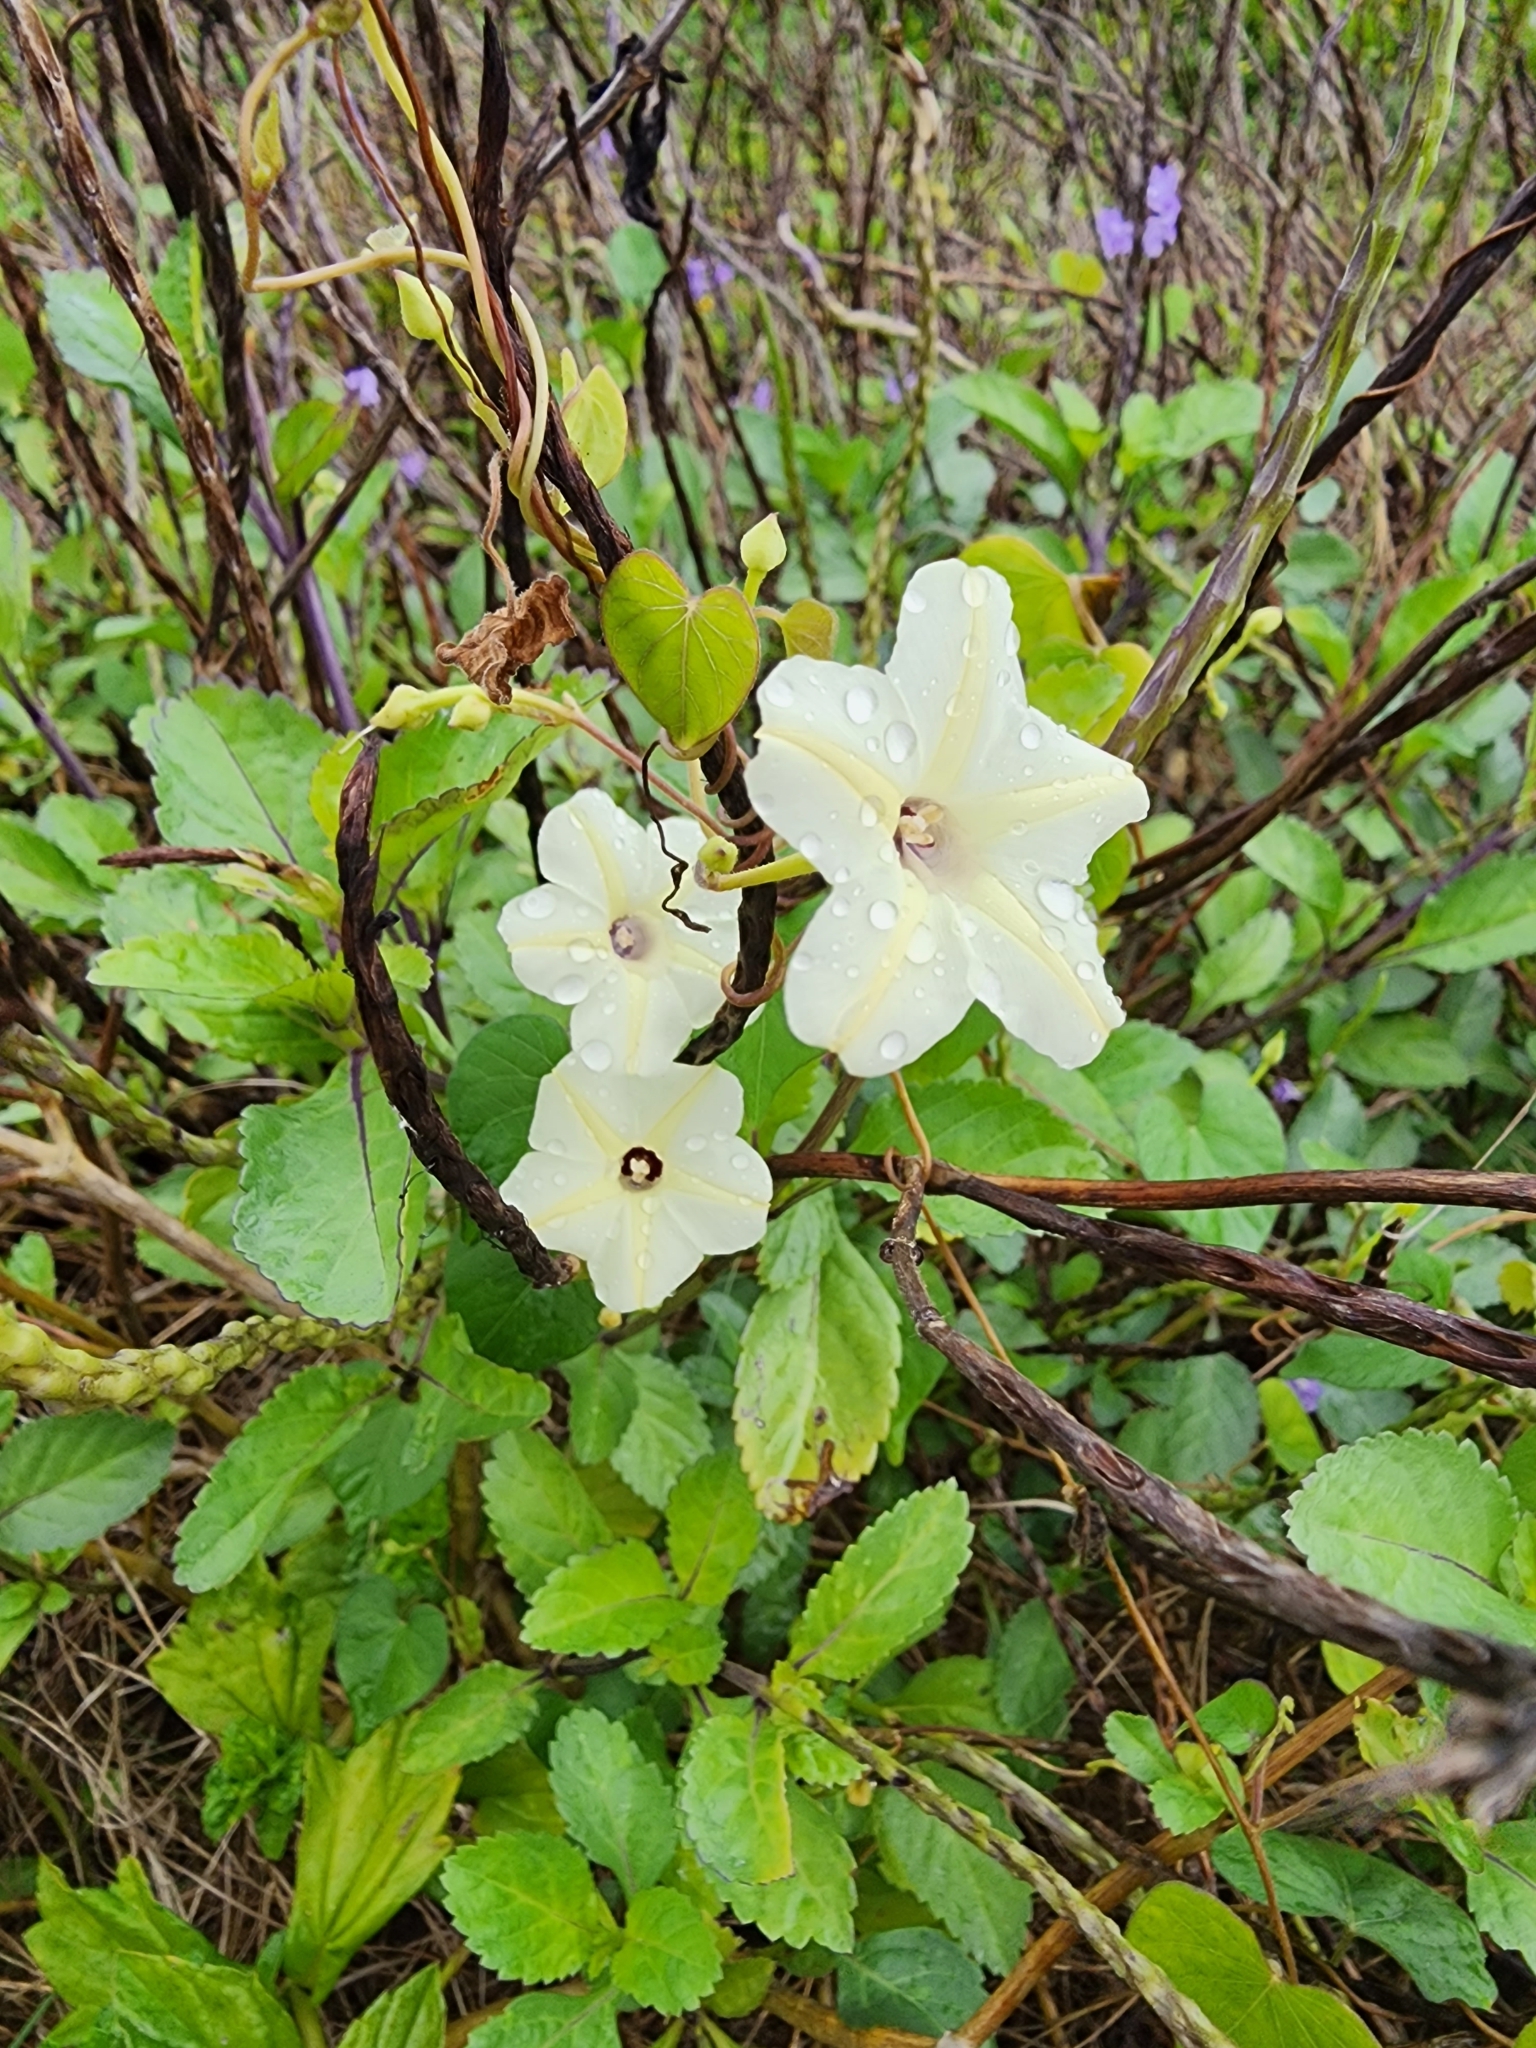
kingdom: Plantae
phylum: Tracheophyta
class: Magnoliopsida
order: Solanales
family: Convolvulaceae
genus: Ipomoea
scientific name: Ipomoea obscura
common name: Obscure morning-glory
